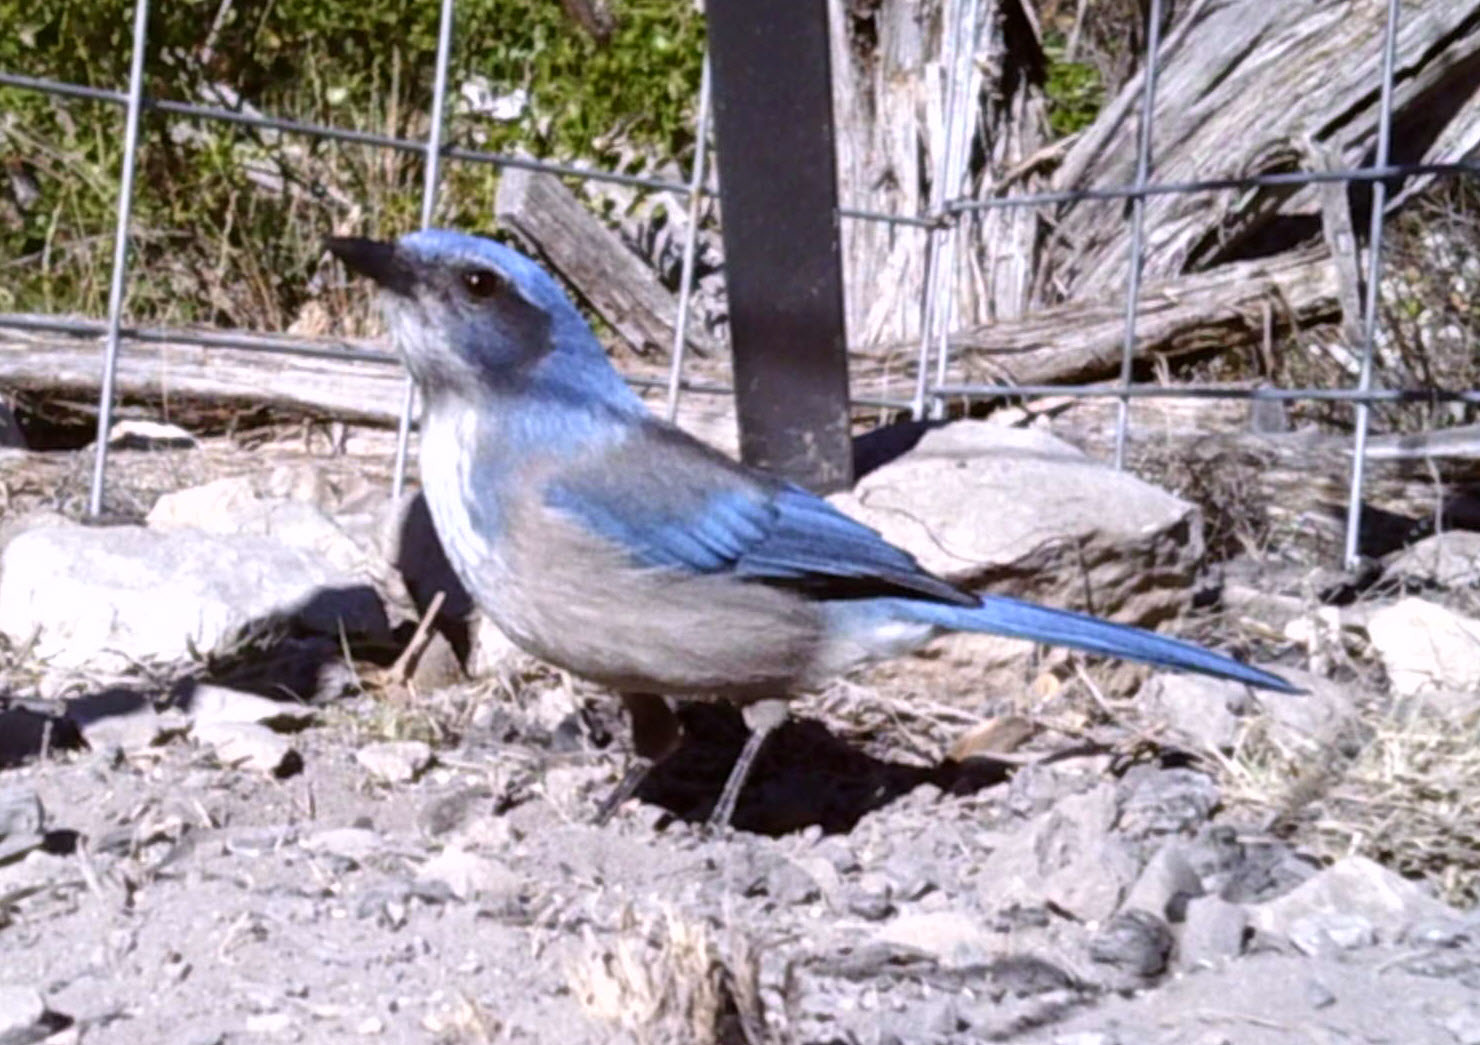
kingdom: Animalia
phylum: Chordata
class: Aves
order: Passeriformes
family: Corvidae
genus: Aphelocoma
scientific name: Aphelocoma woodhouseii
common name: Woodhouse's scrub-jay
